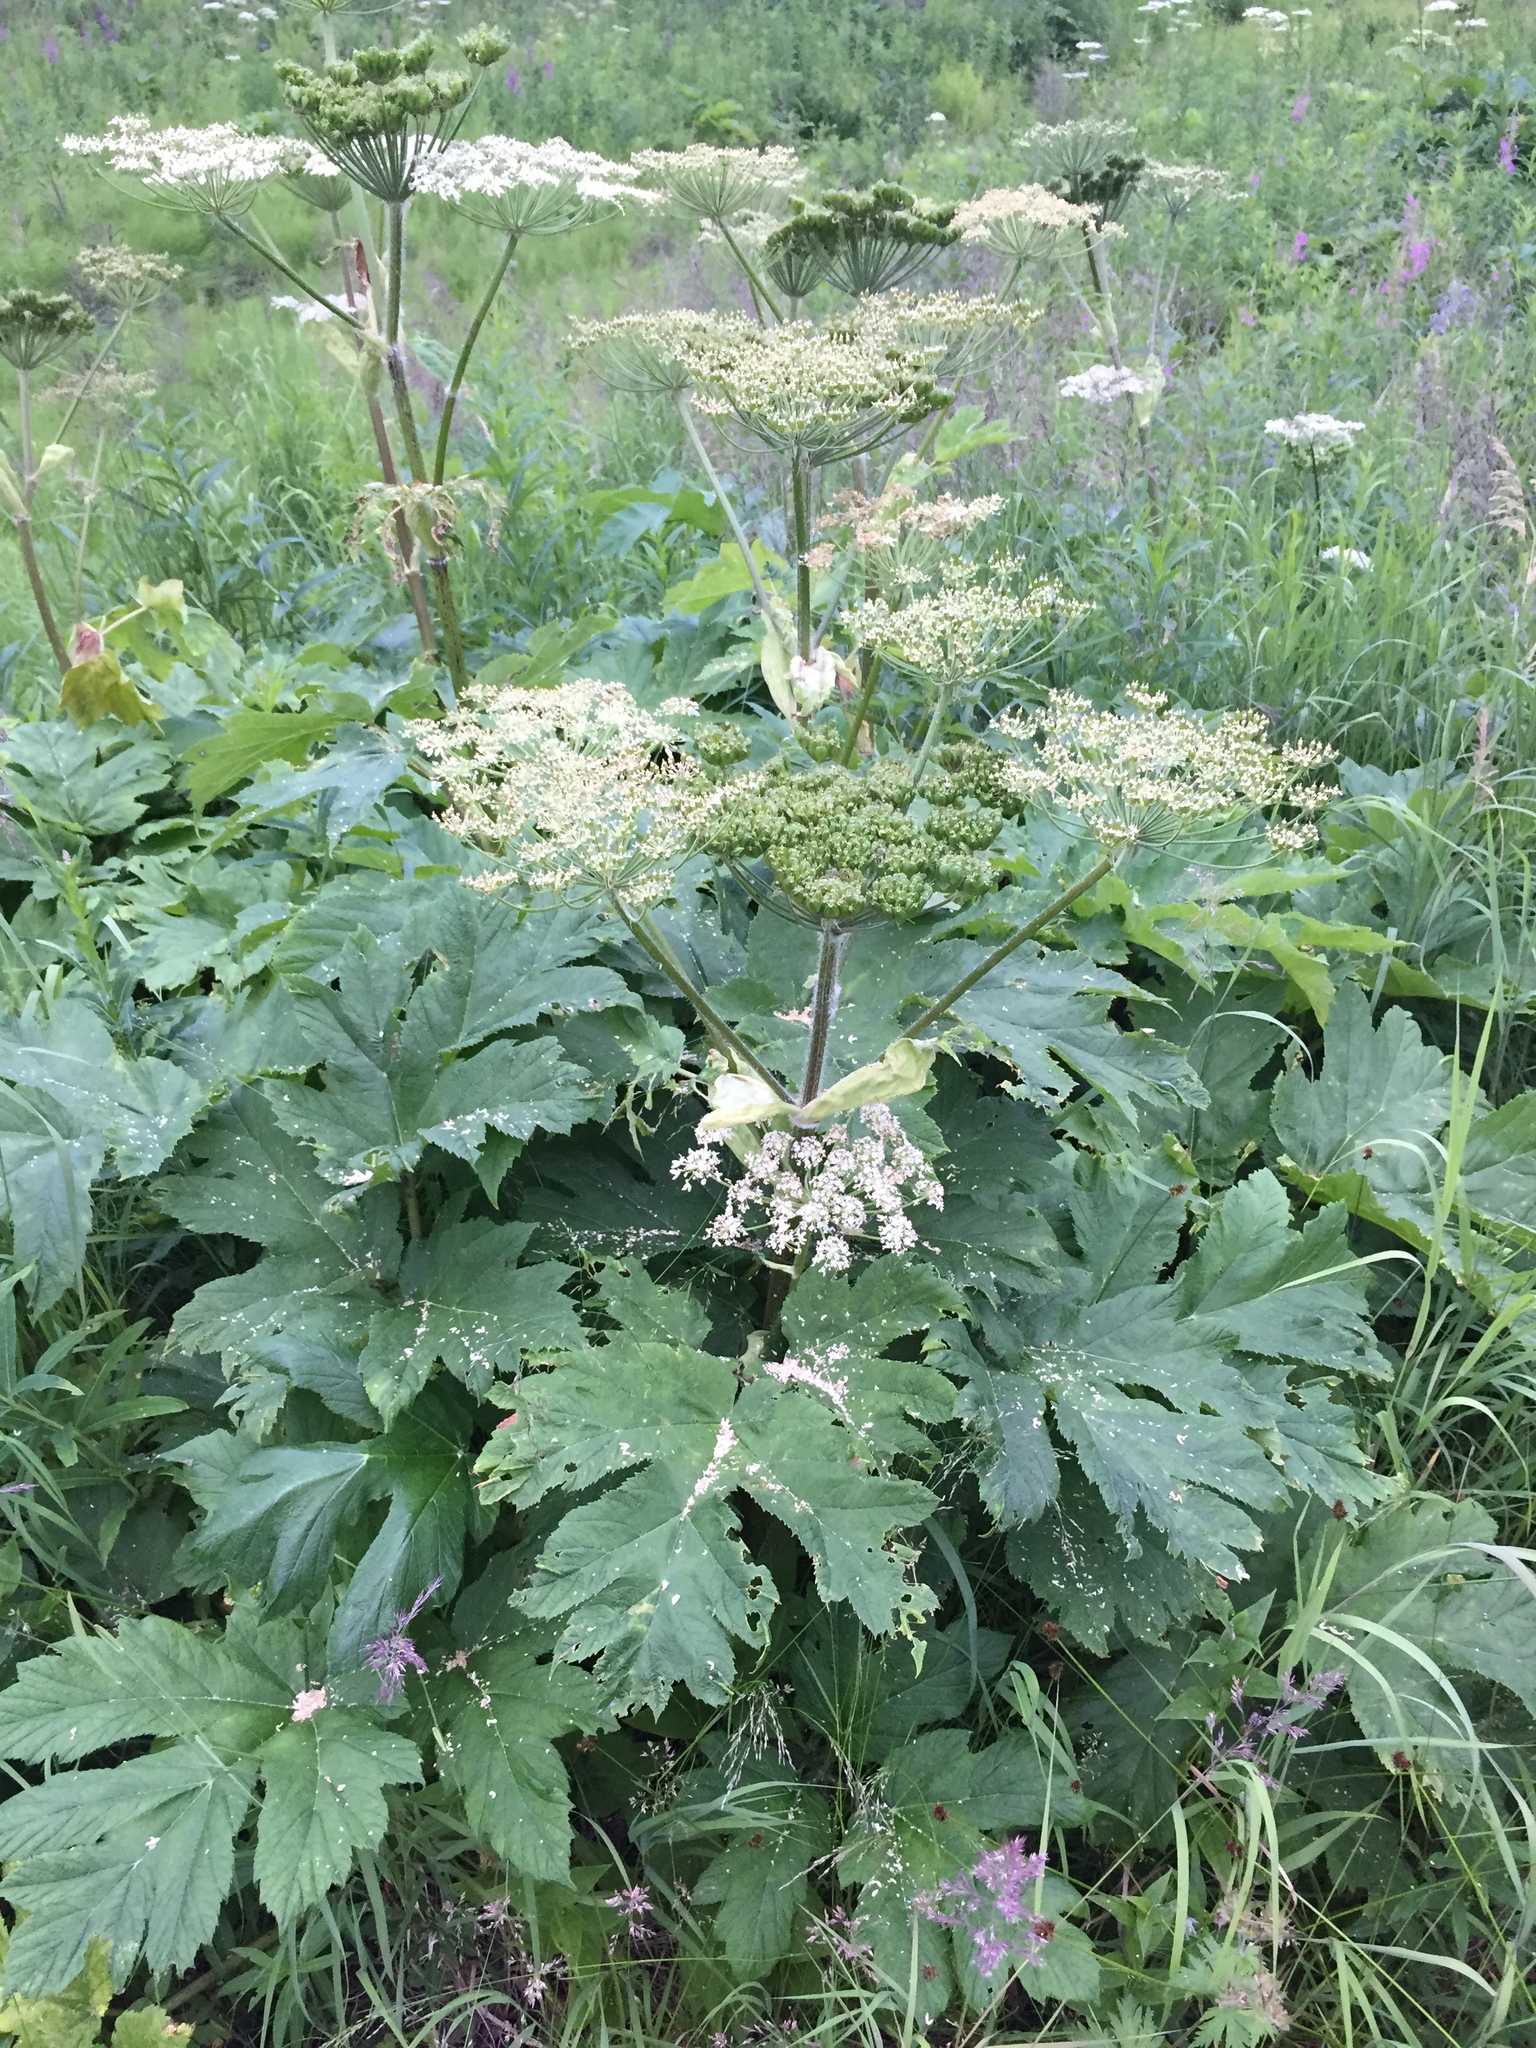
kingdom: Plantae
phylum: Tracheophyta
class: Magnoliopsida
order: Apiales
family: Apiaceae
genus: Heracleum
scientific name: Heracleum maximum
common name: American cow parsnip
